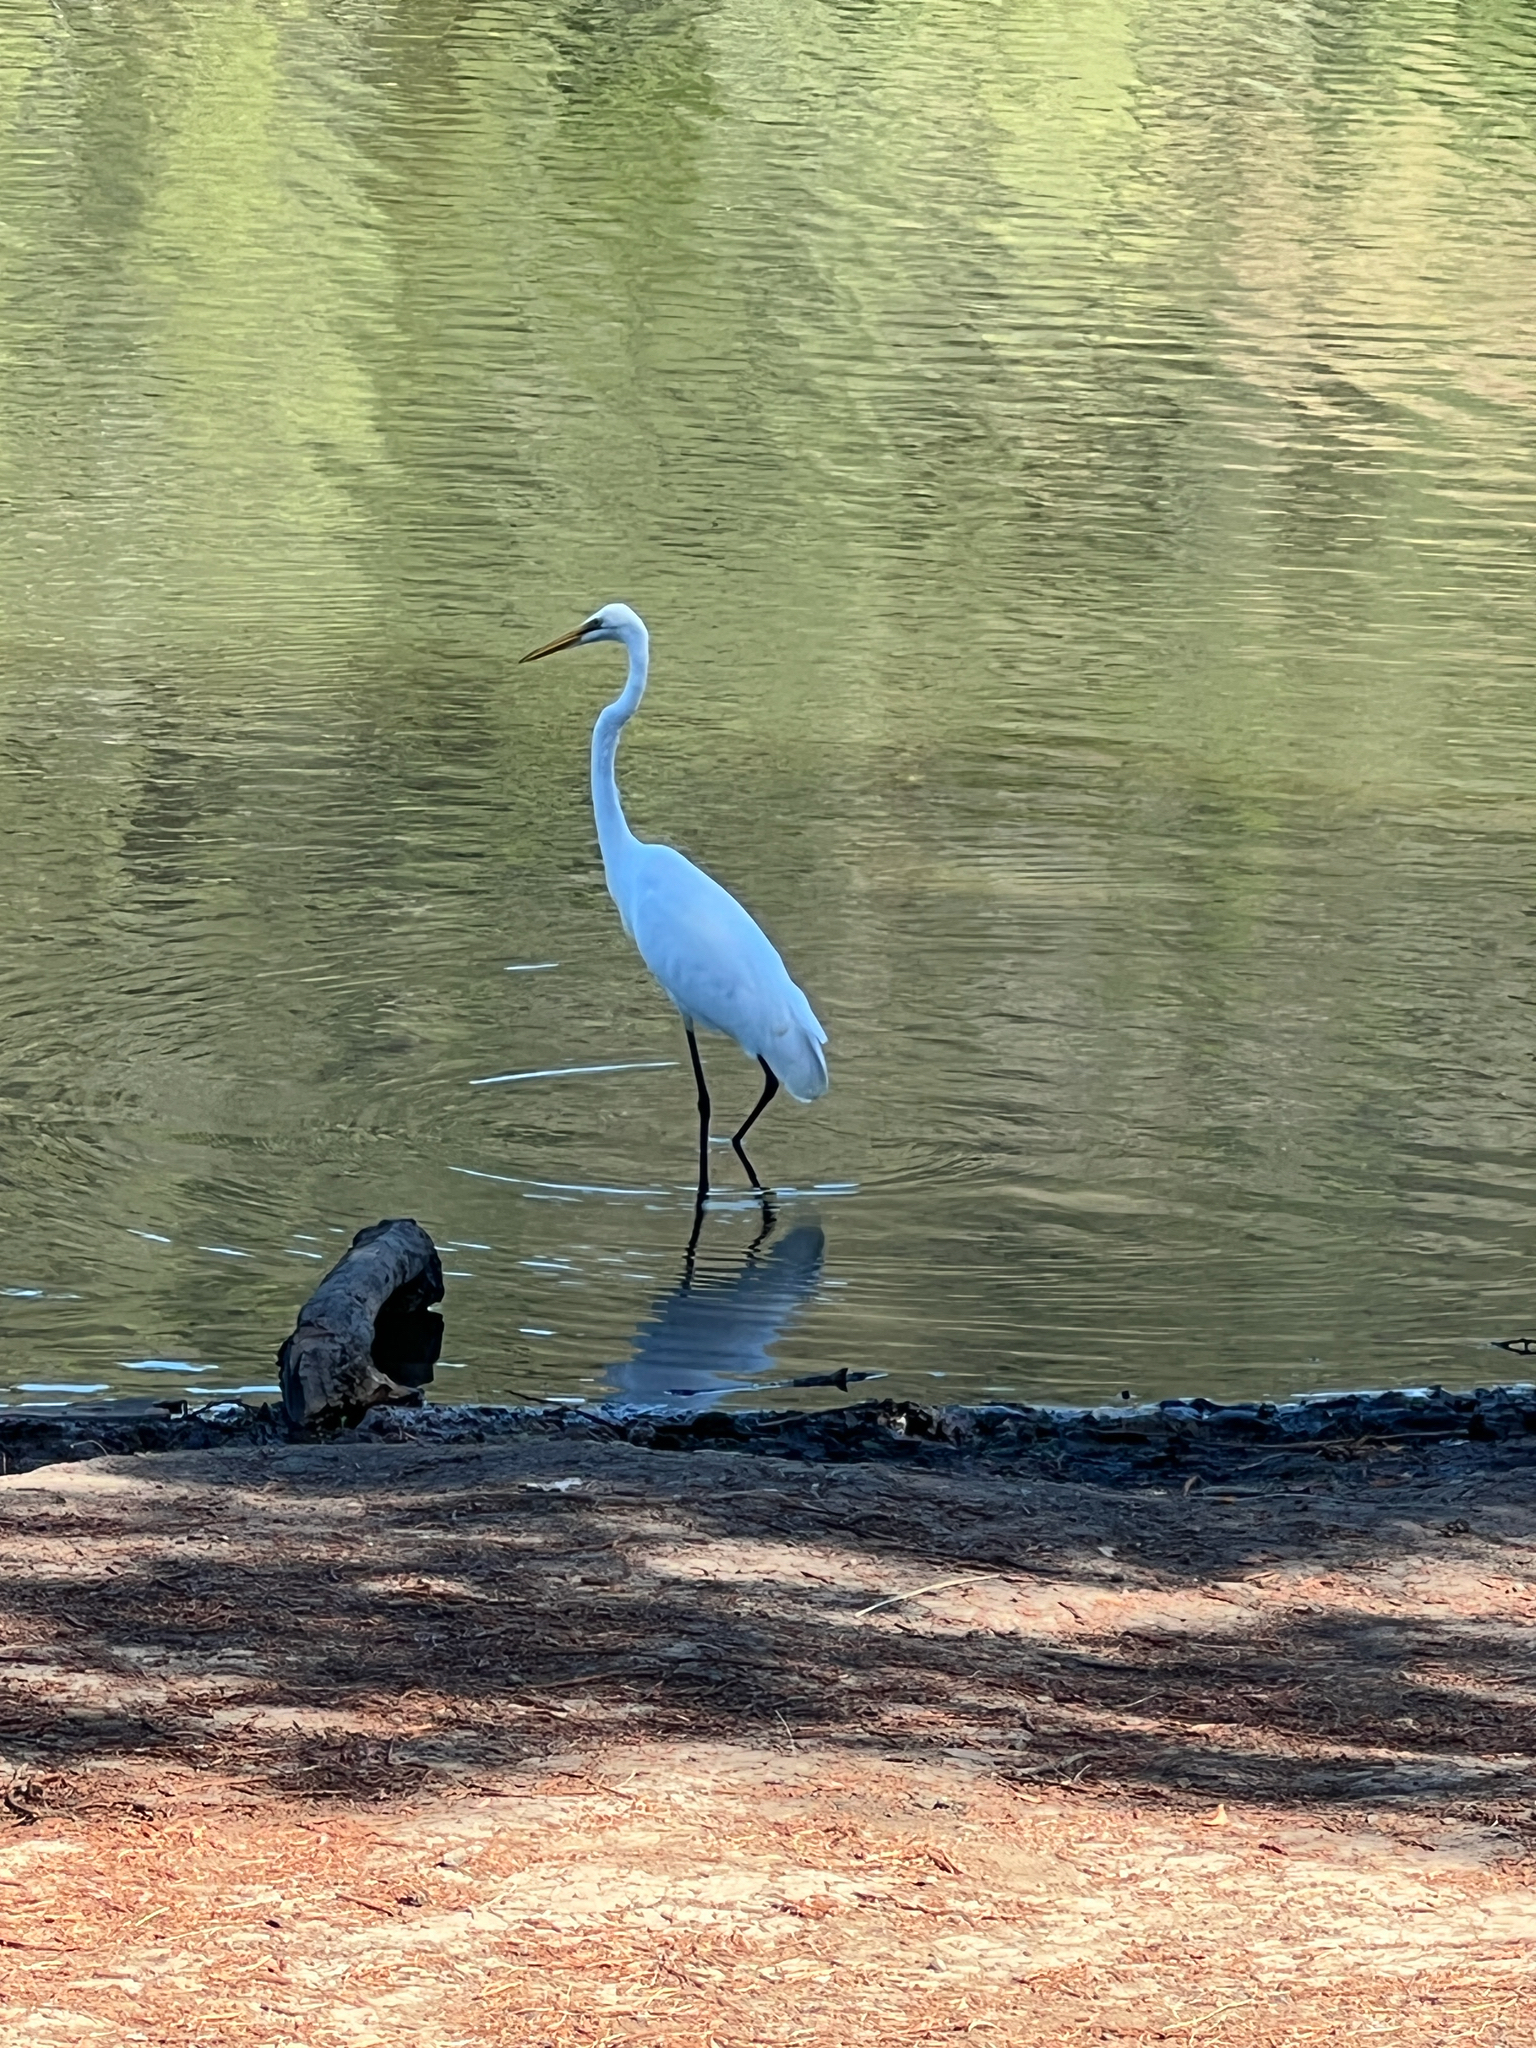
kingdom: Animalia
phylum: Chordata
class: Aves
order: Pelecaniformes
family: Ardeidae
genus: Ardea
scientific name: Ardea alba
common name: Great egret
